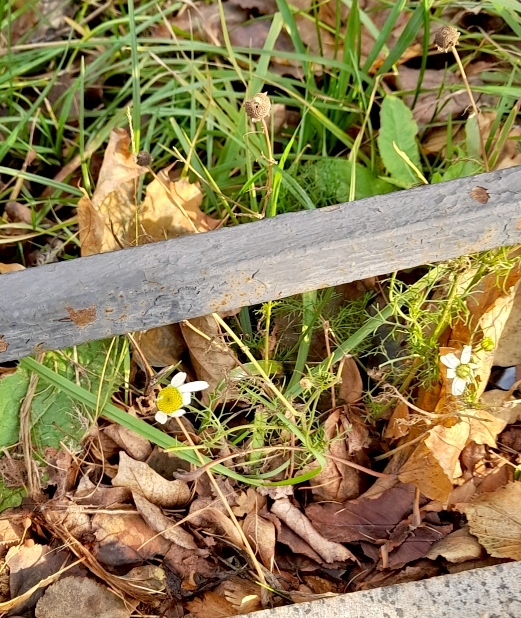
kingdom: Plantae
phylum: Tracheophyta
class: Magnoliopsida
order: Asterales
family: Asteraceae
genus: Tripleurospermum
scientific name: Tripleurospermum inodorum
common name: Scentless mayweed
